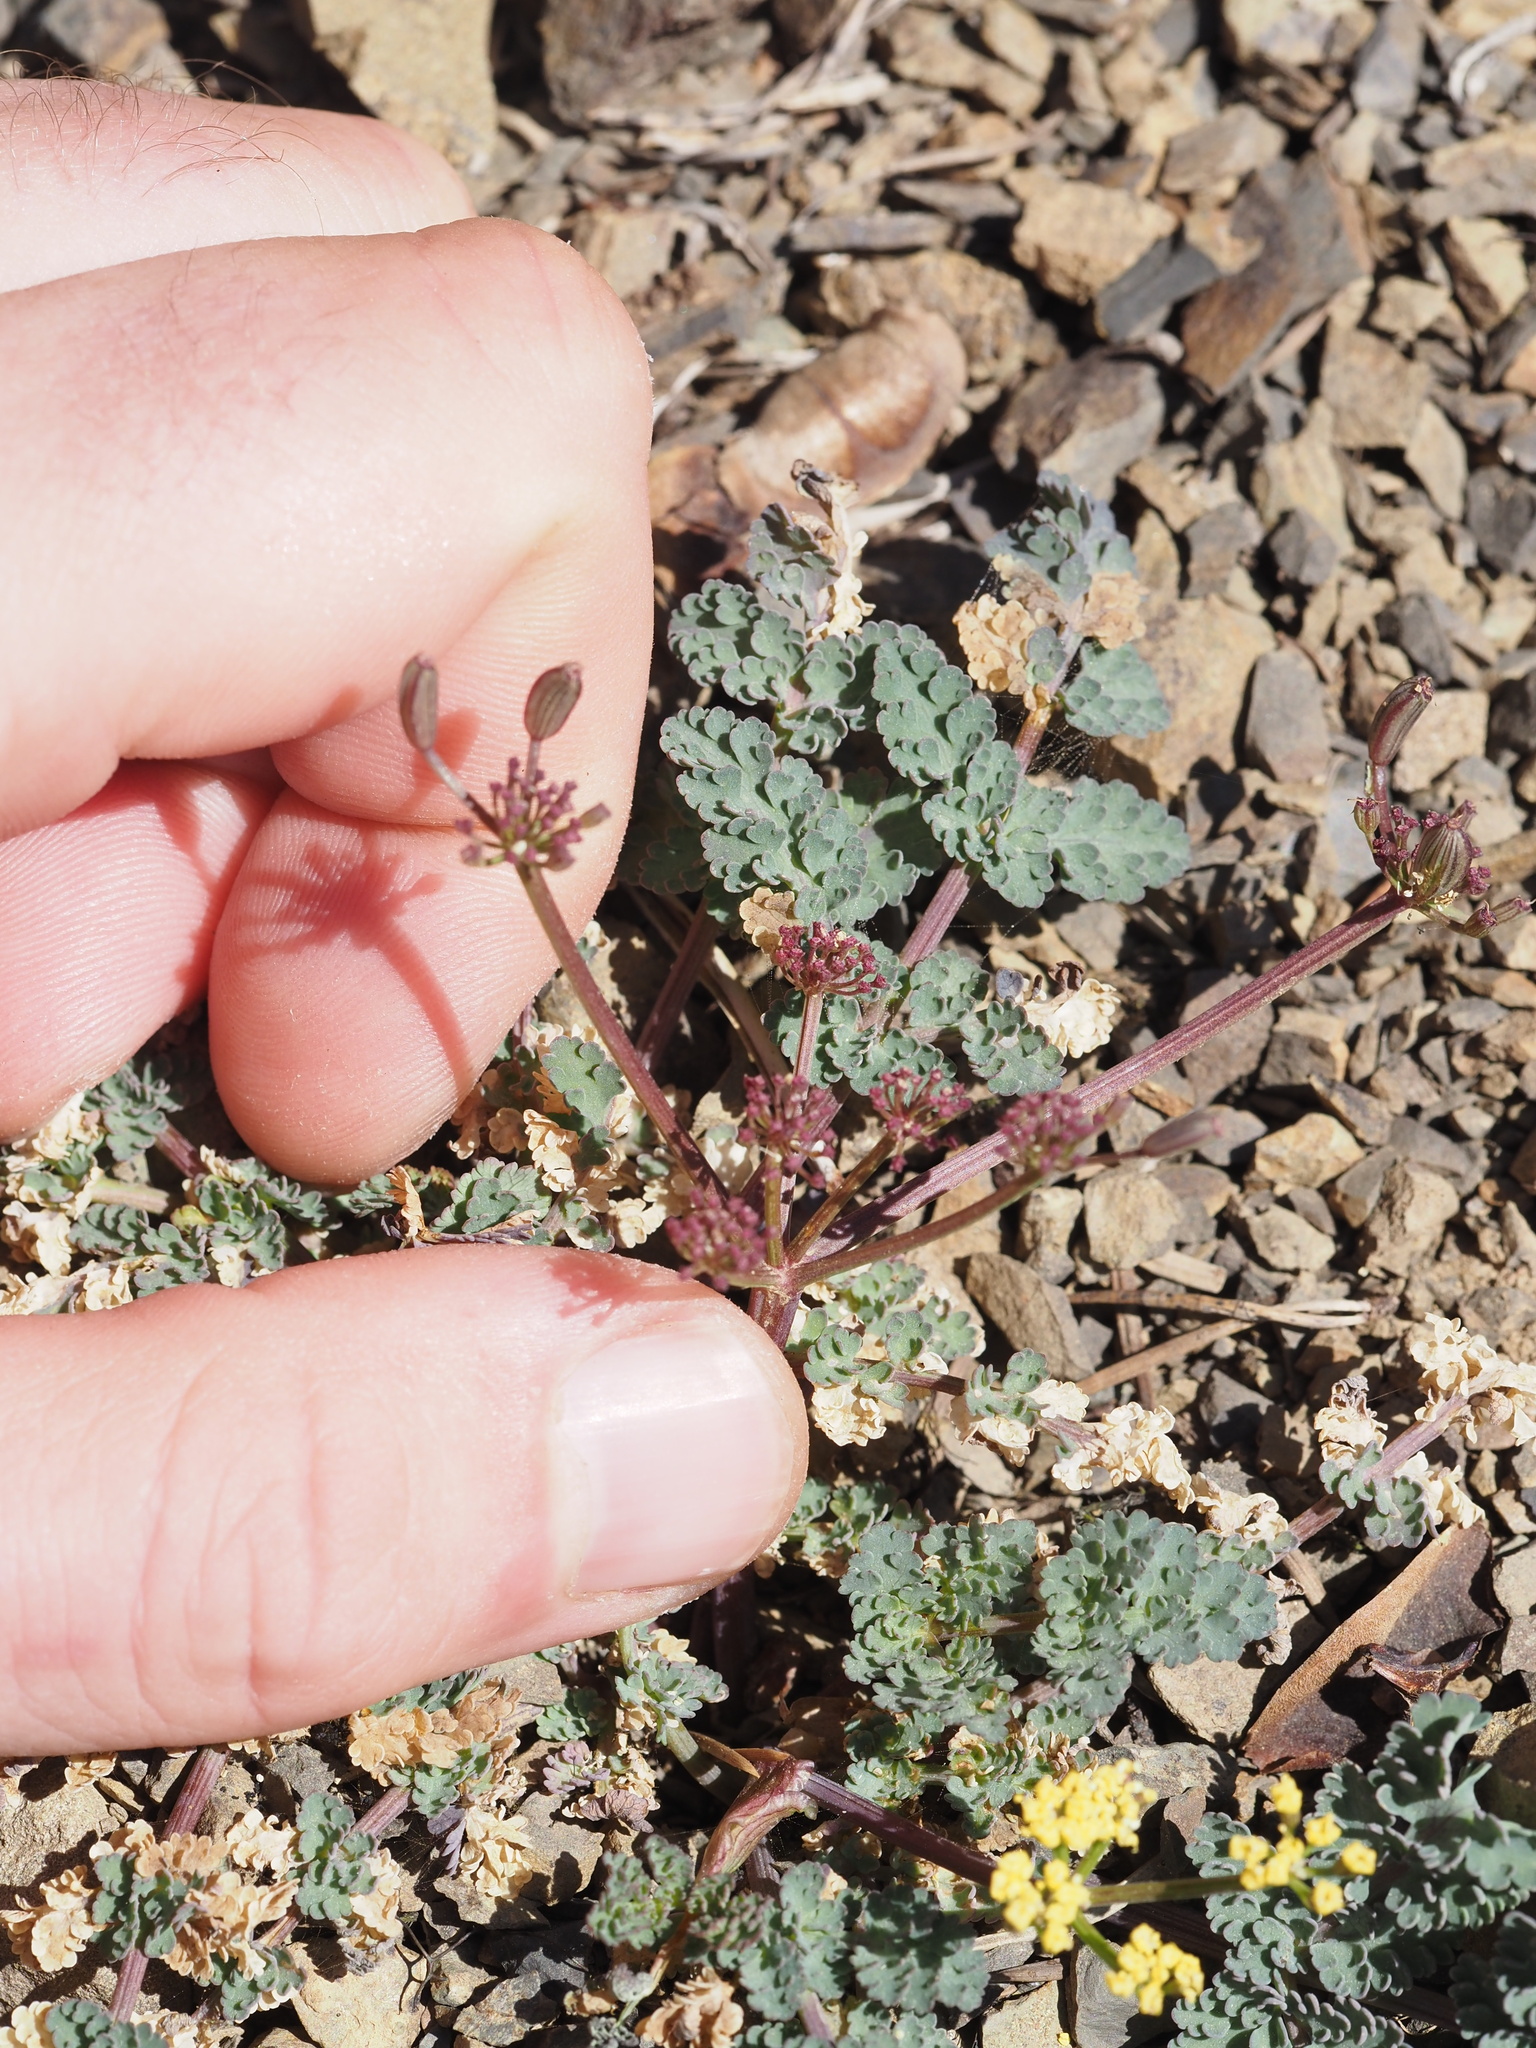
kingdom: Plantae
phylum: Tracheophyta
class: Magnoliopsida
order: Apiales
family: Apiaceae
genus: Lomatium
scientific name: Lomatium martindalei
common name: Cascade desert-parsley
